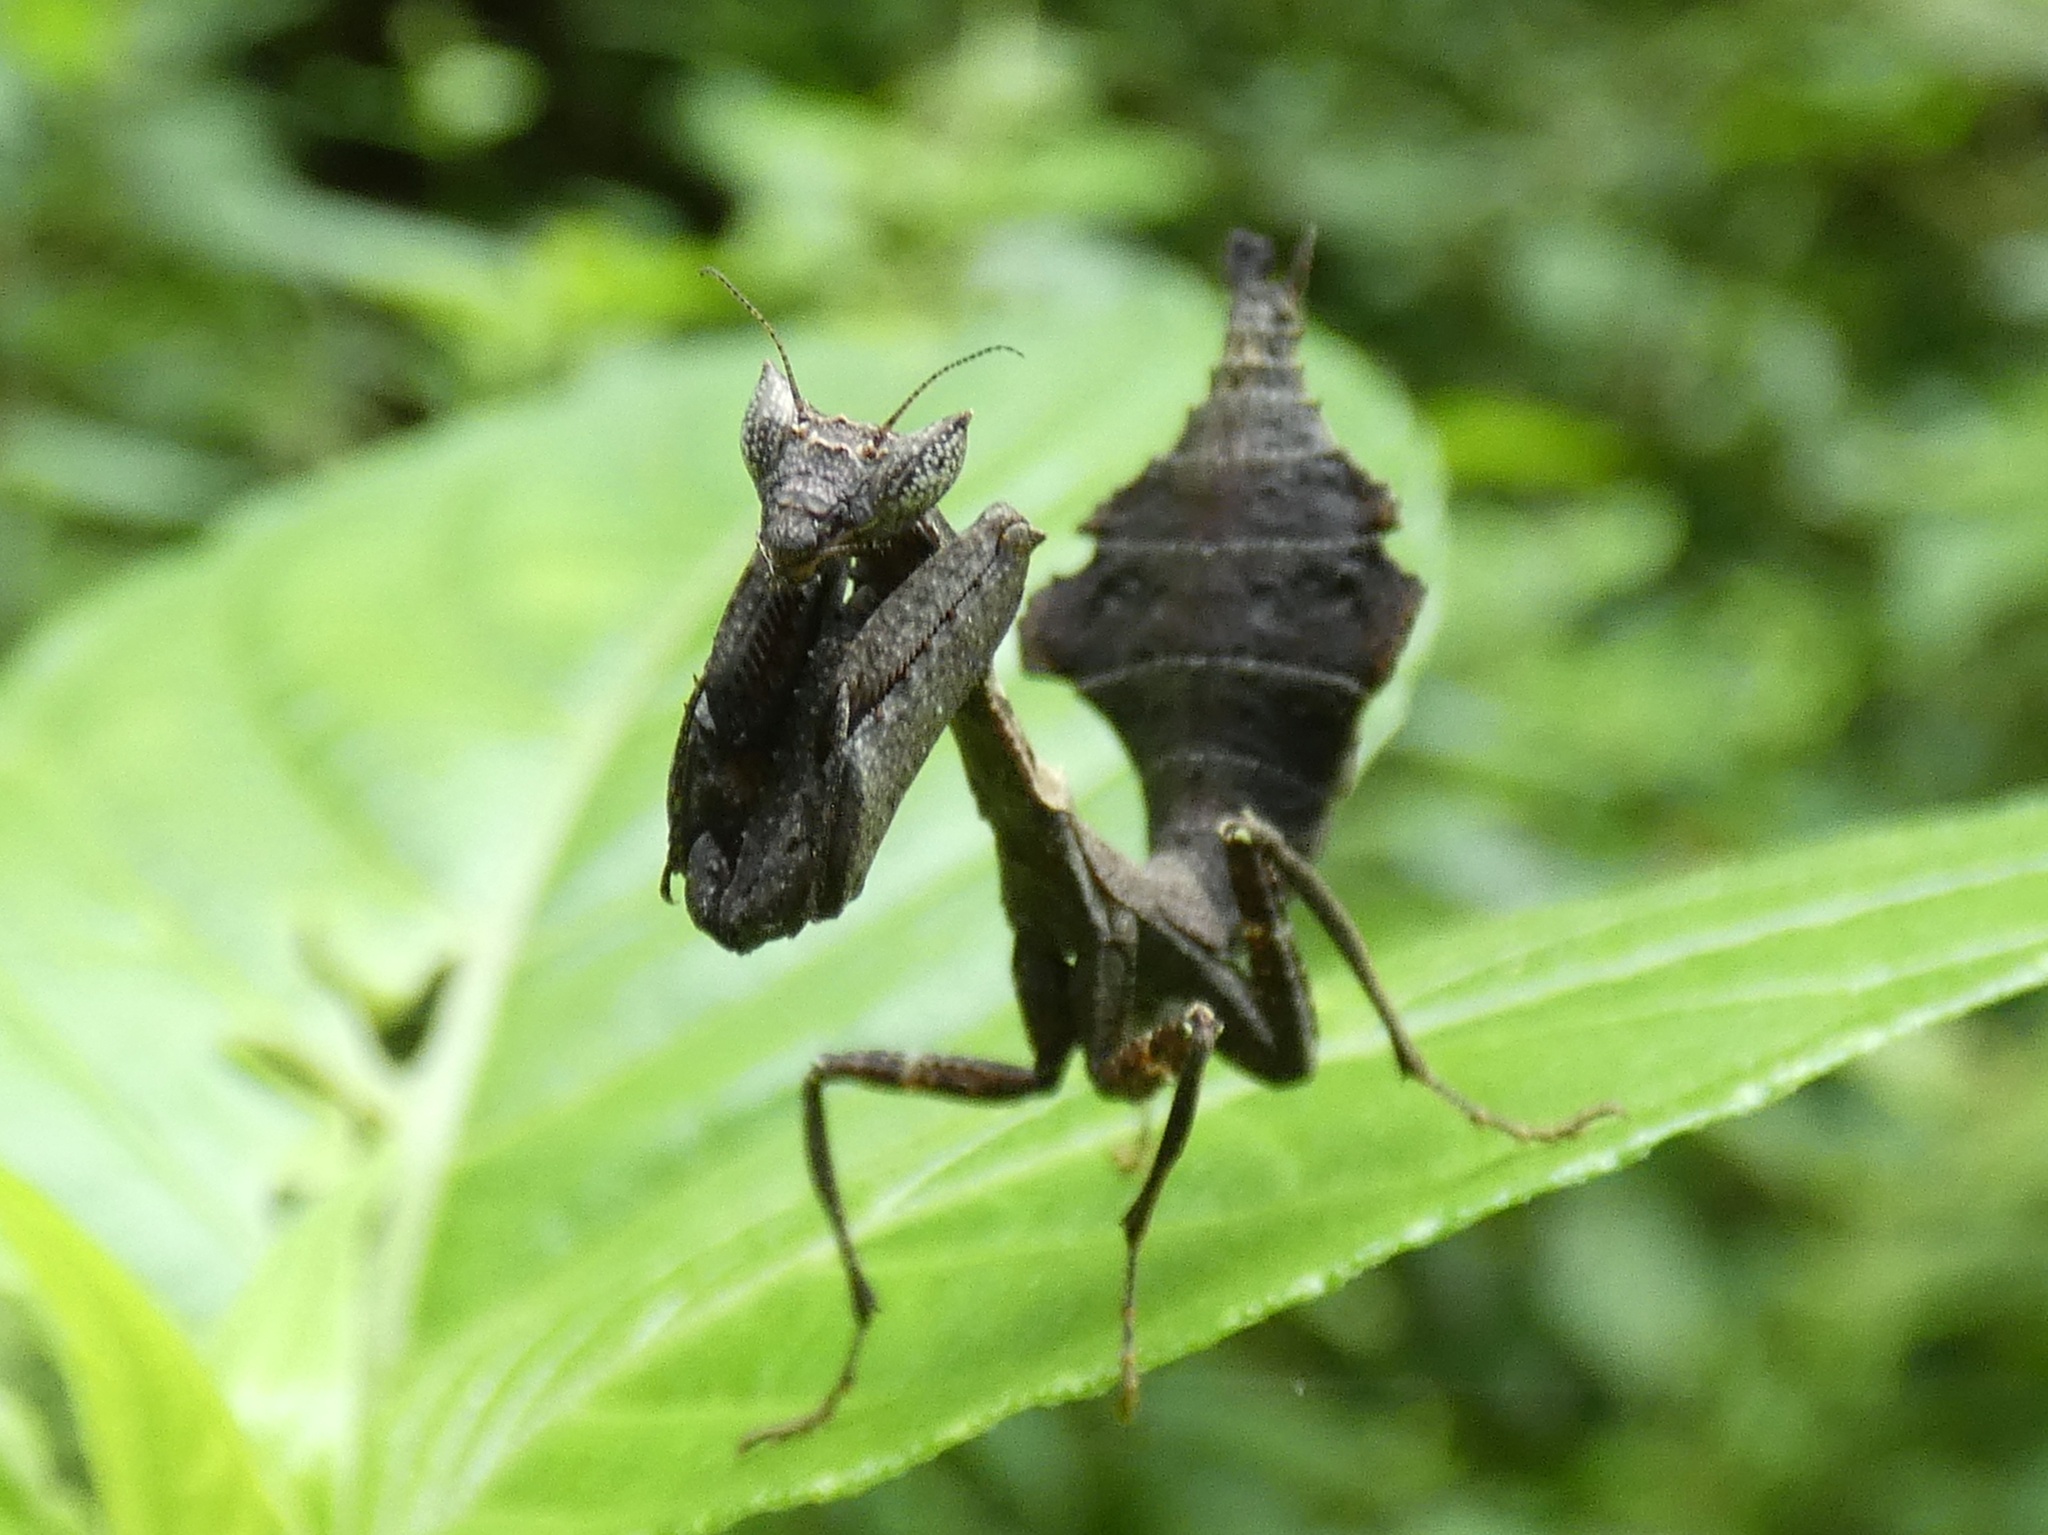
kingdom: Animalia
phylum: Arthropoda
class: Insecta
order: Mantodea
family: Acanthopidae
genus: Acanthops
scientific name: Acanthops falcata
